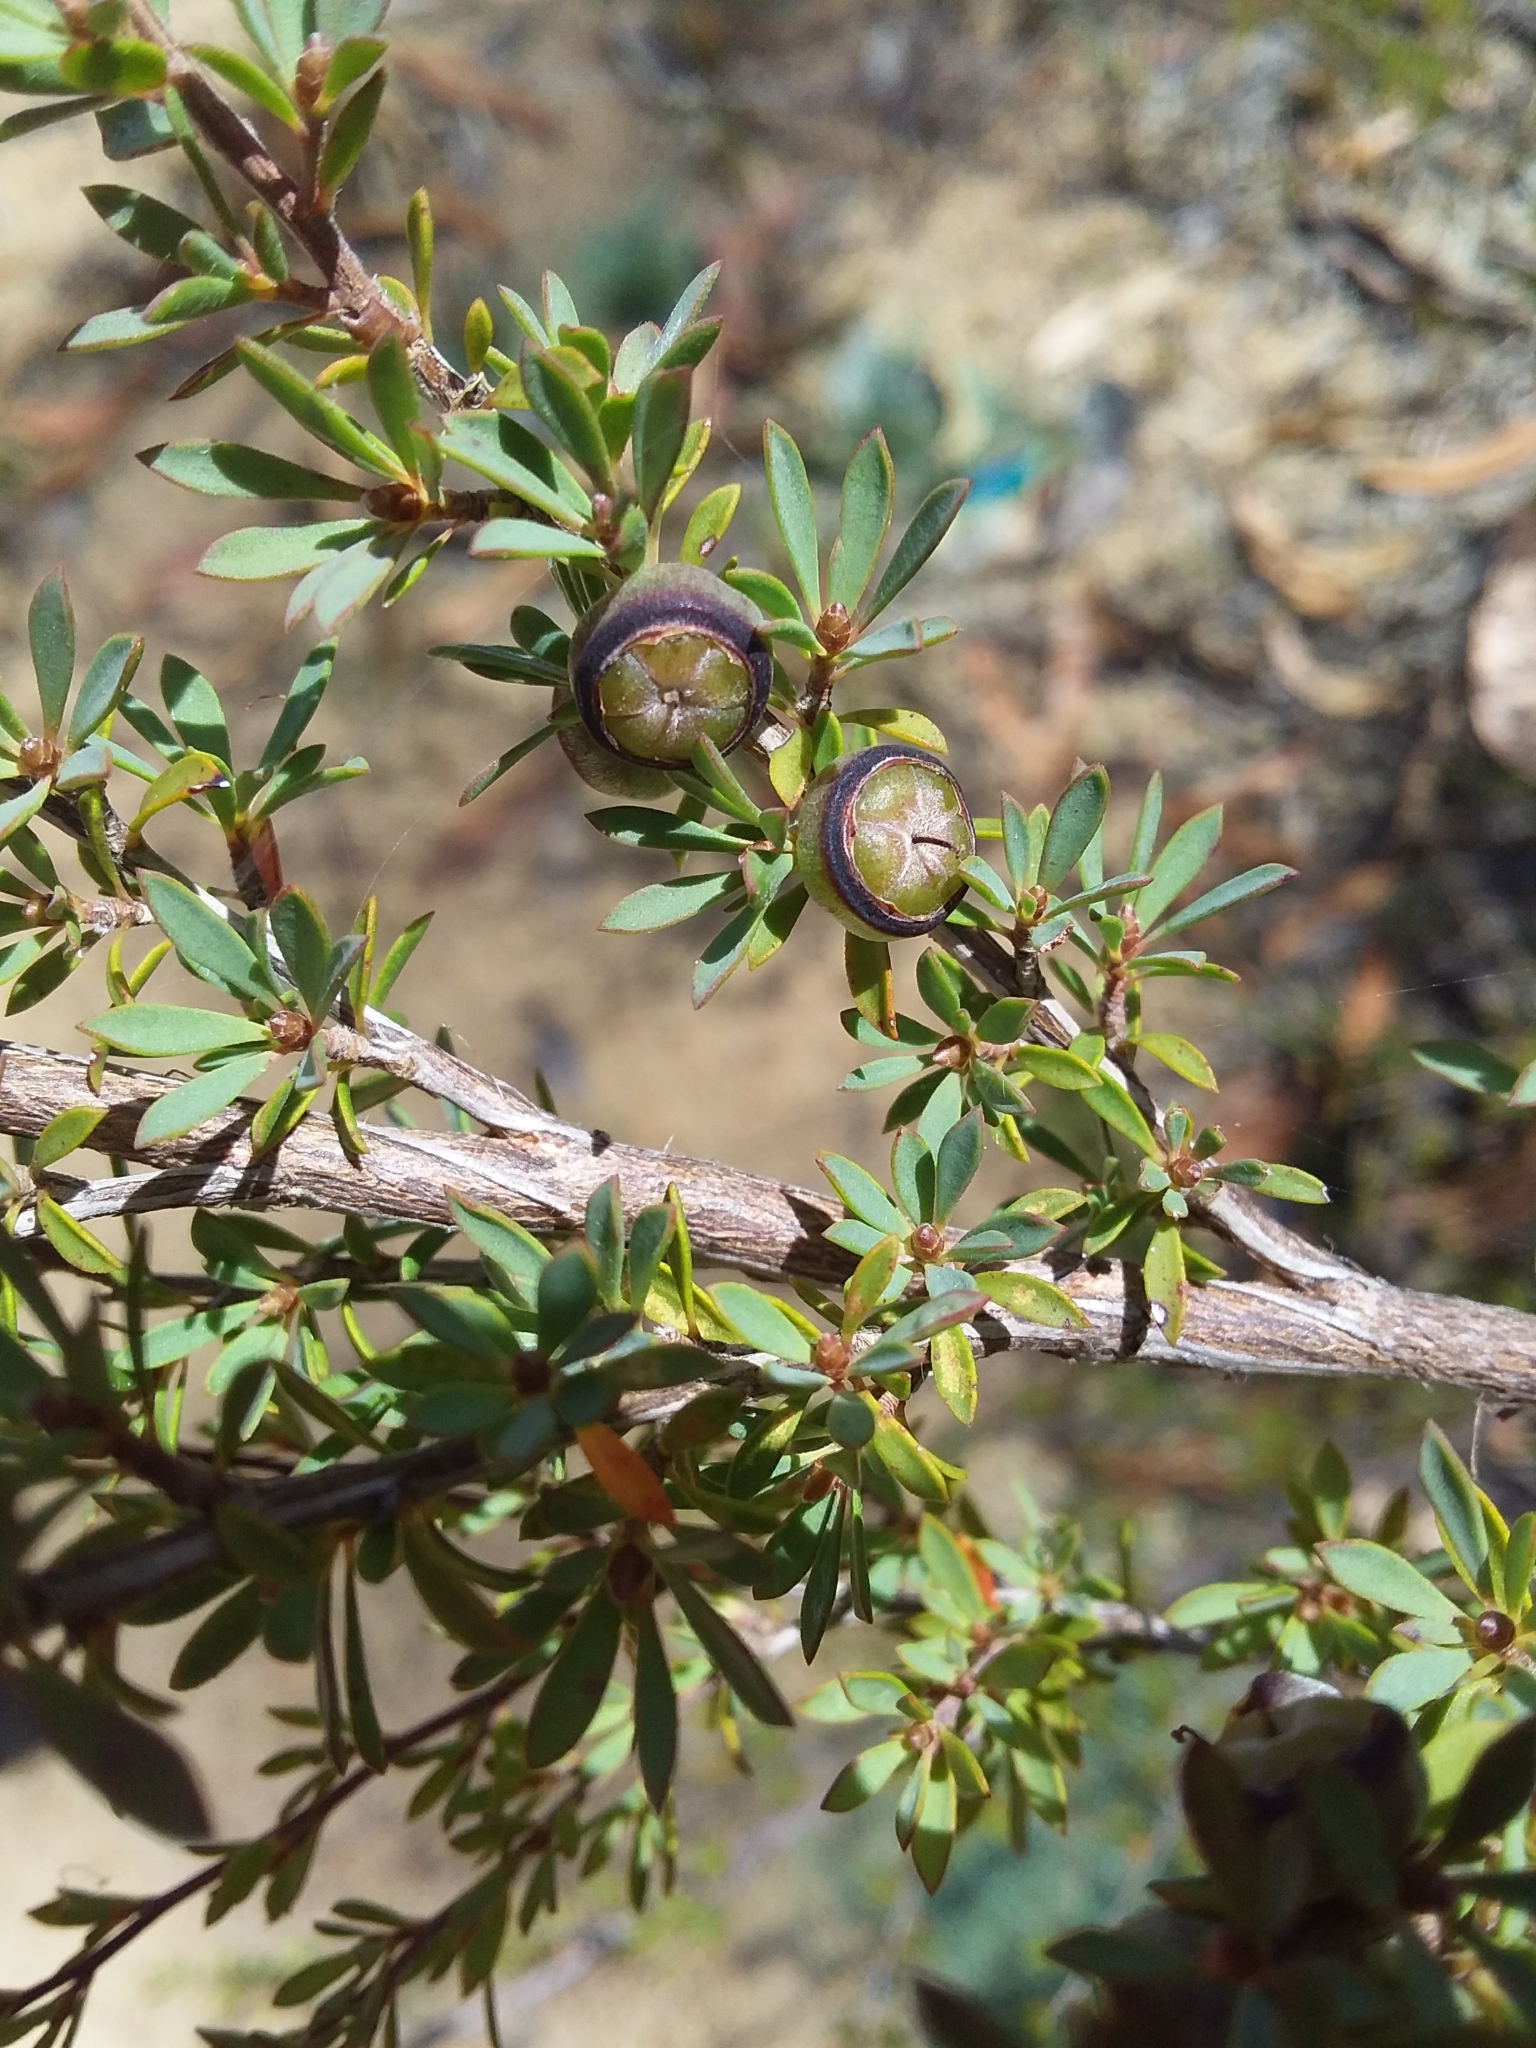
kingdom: Plantae
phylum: Tracheophyta
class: Magnoliopsida
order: Myrtales
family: Myrtaceae
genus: Leptospermum
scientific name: Leptospermum myrsinoides
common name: Heath teatree
